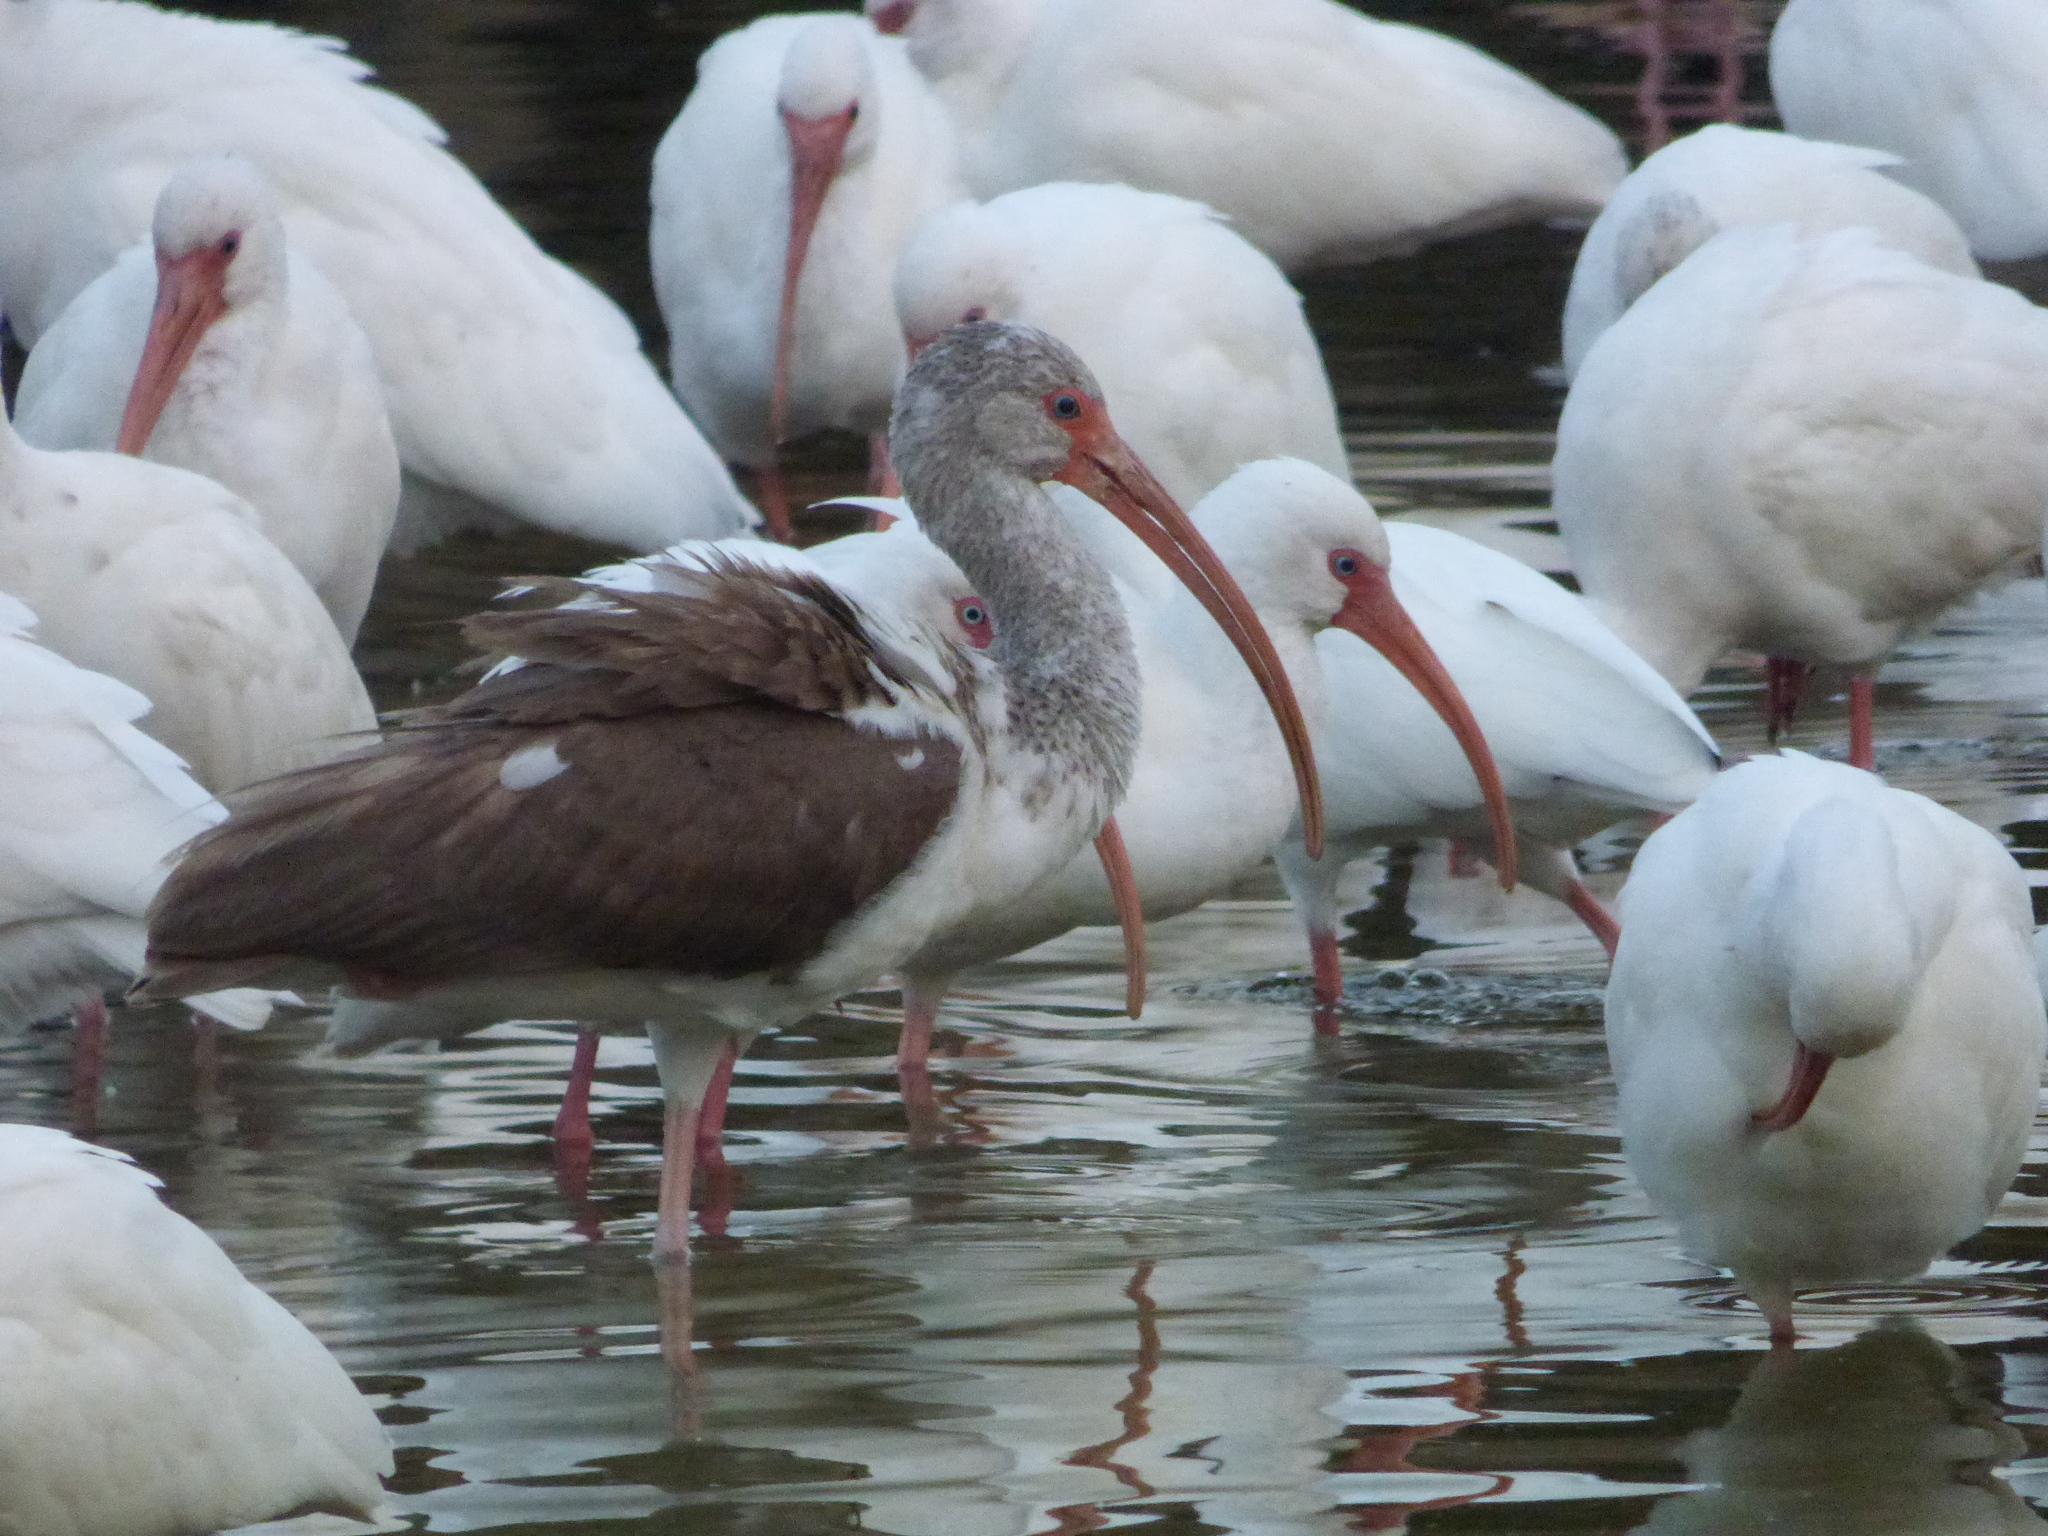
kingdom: Animalia
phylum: Chordata
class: Aves
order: Pelecaniformes
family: Threskiornithidae
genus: Eudocimus
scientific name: Eudocimus albus
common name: White ibis
